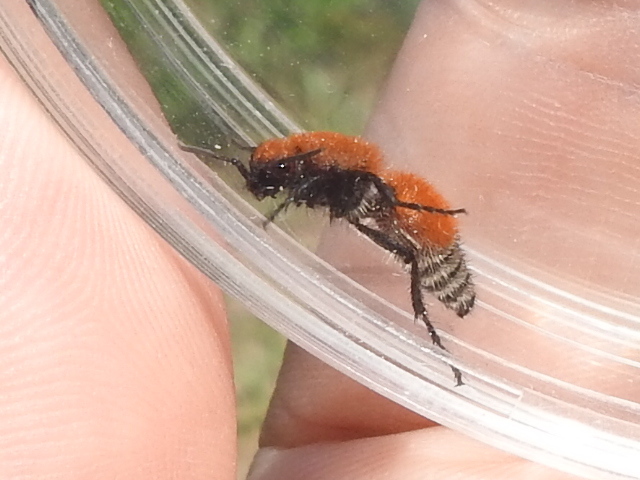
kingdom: Animalia
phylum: Arthropoda
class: Insecta
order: Hymenoptera
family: Mutillidae
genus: Dasymutilla
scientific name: Dasymutilla
